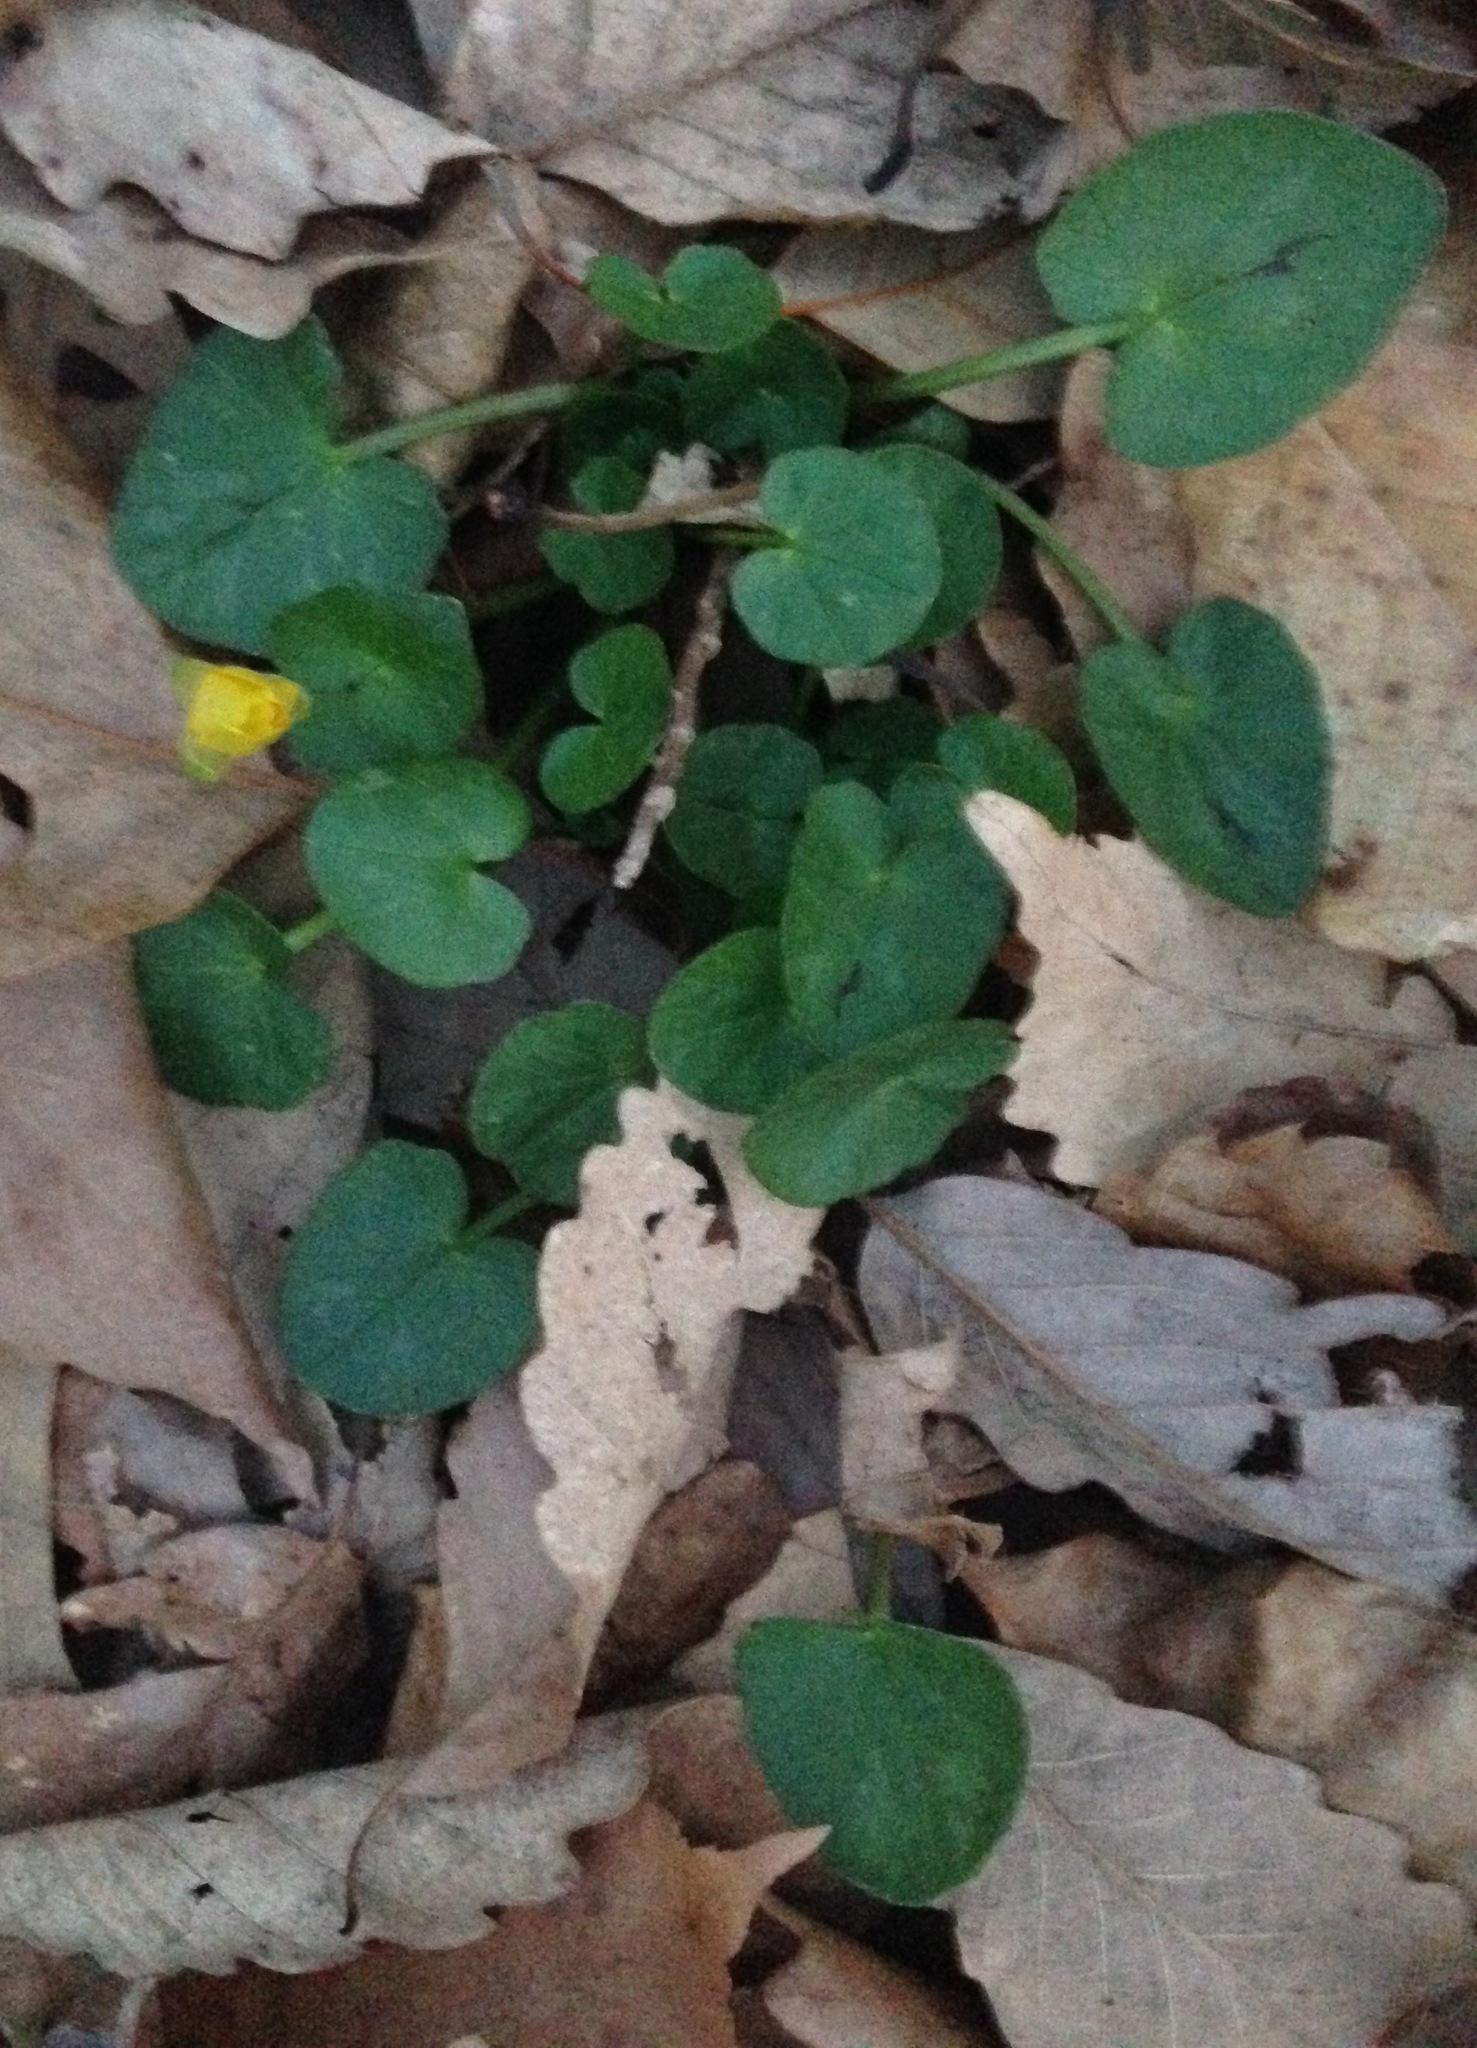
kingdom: Plantae
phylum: Tracheophyta
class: Magnoliopsida
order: Ranunculales
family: Ranunculaceae
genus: Ficaria
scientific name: Ficaria verna
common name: Lesser celandine
